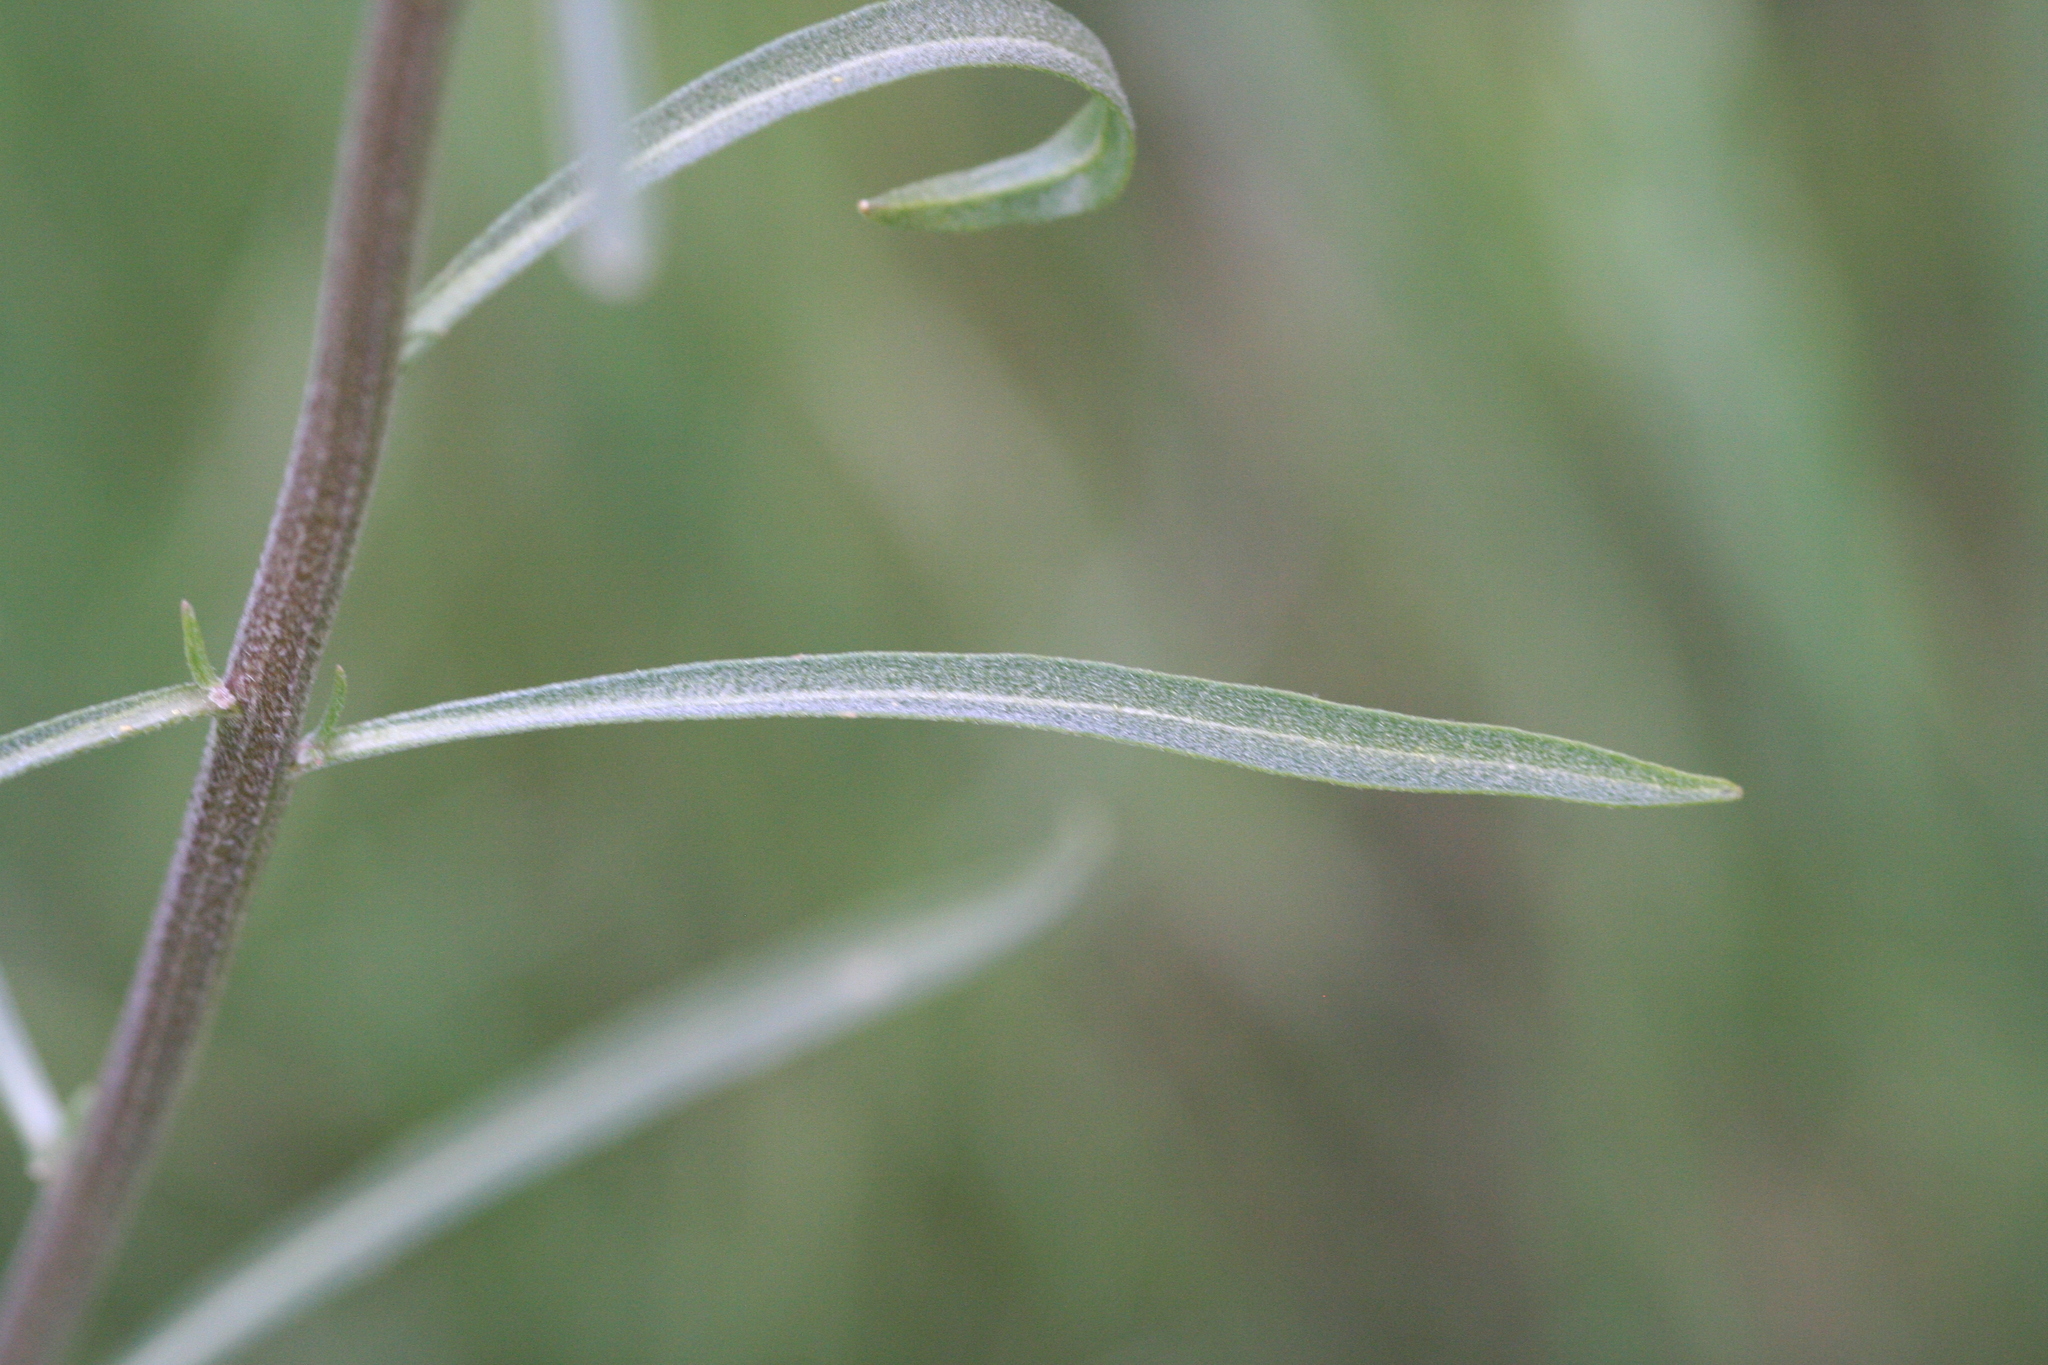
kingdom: Plantae
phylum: Tracheophyta
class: Magnoliopsida
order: Brassicales
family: Brassicaceae
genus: Erysimum
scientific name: Erysimum capitatum
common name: Western wallflower
